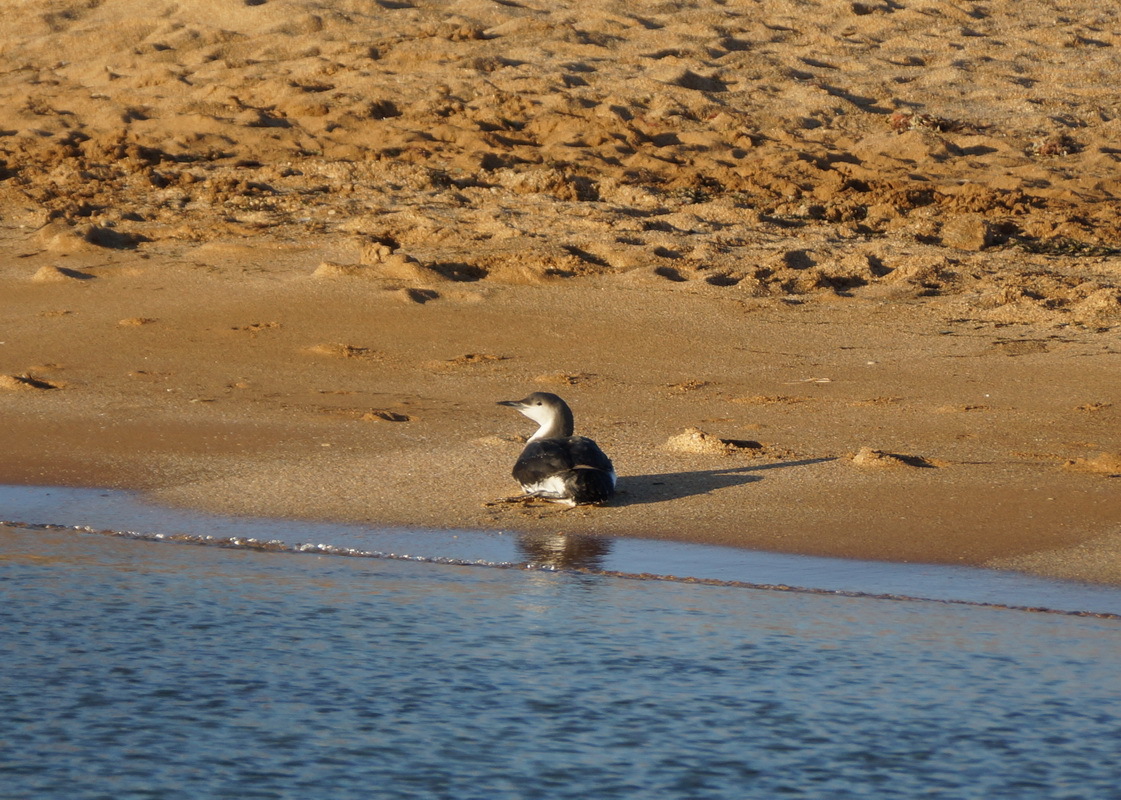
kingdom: Animalia
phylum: Chordata
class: Aves
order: Gaviiformes
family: Gaviidae
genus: Gavia
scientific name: Gavia arctica
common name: Black-throated loon
